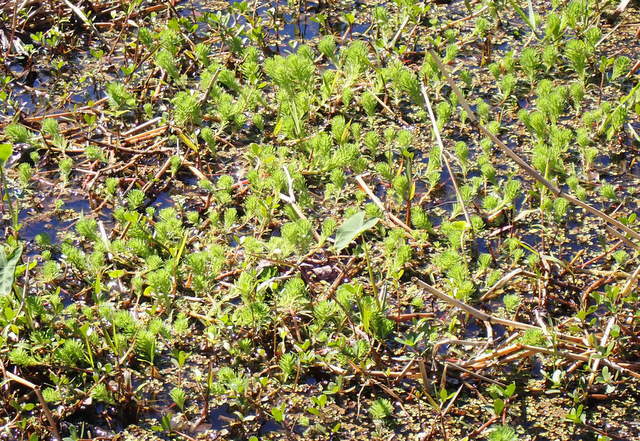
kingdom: Plantae
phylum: Tracheophyta
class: Magnoliopsida
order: Saxifragales
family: Haloragaceae
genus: Myriophyllum
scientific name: Myriophyllum aquaticum
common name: Parrot's feather
